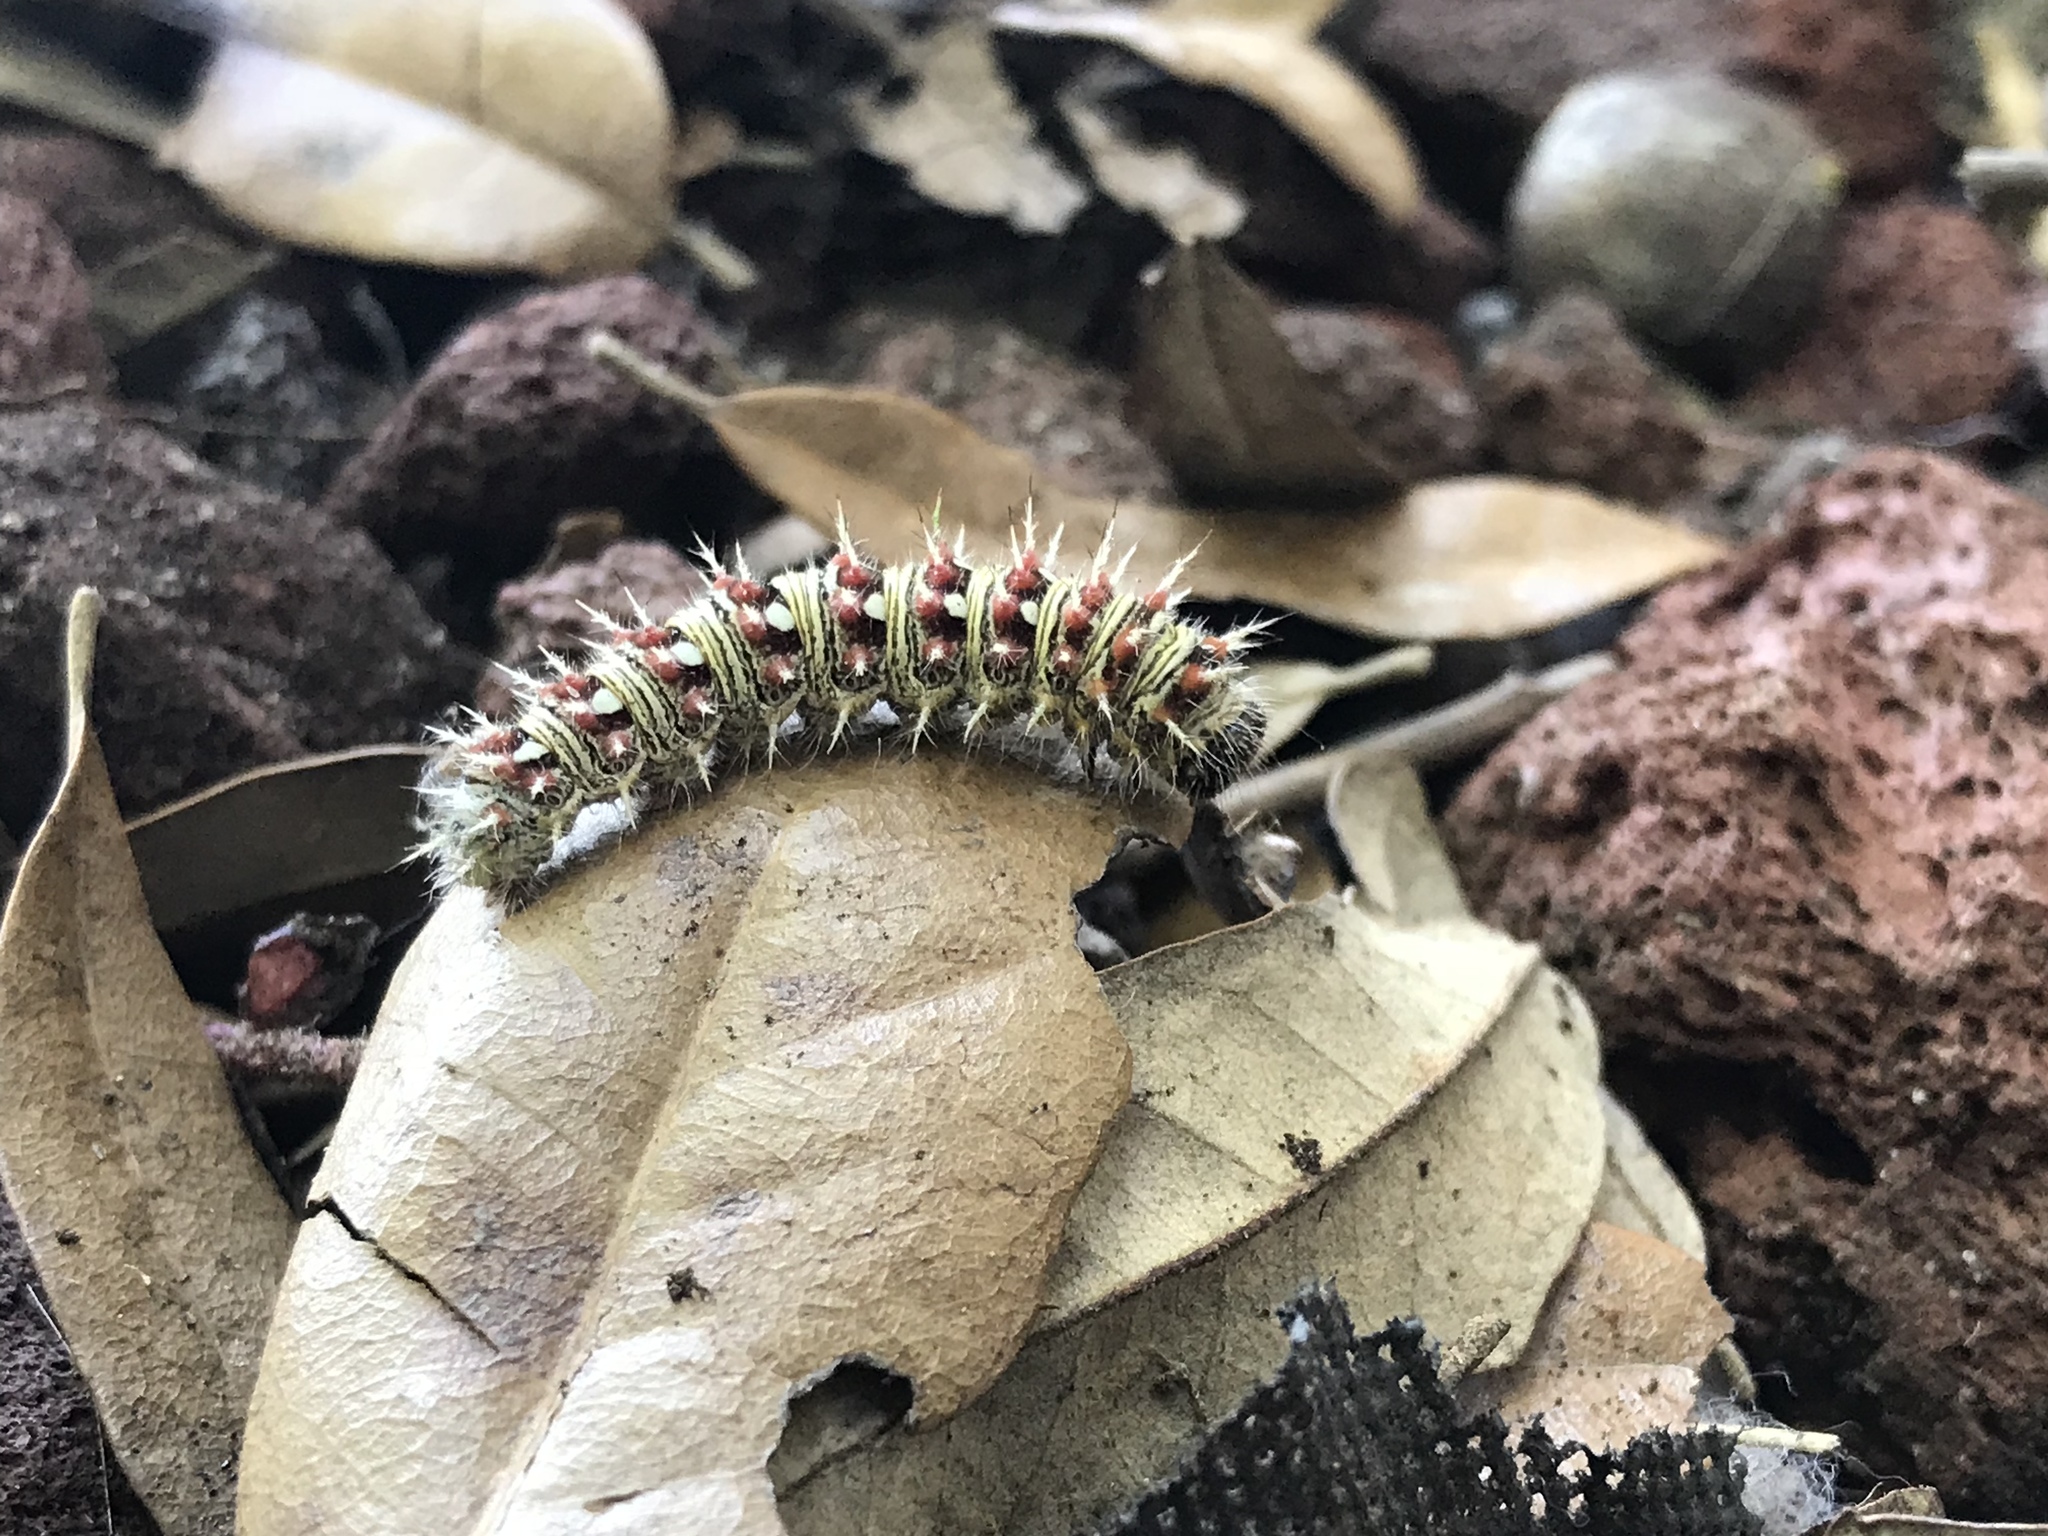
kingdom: Animalia
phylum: Arthropoda
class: Insecta
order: Lepidoptera
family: Nymphalidae
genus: Vanessa
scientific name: Vanessa virginiensis
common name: American lady
